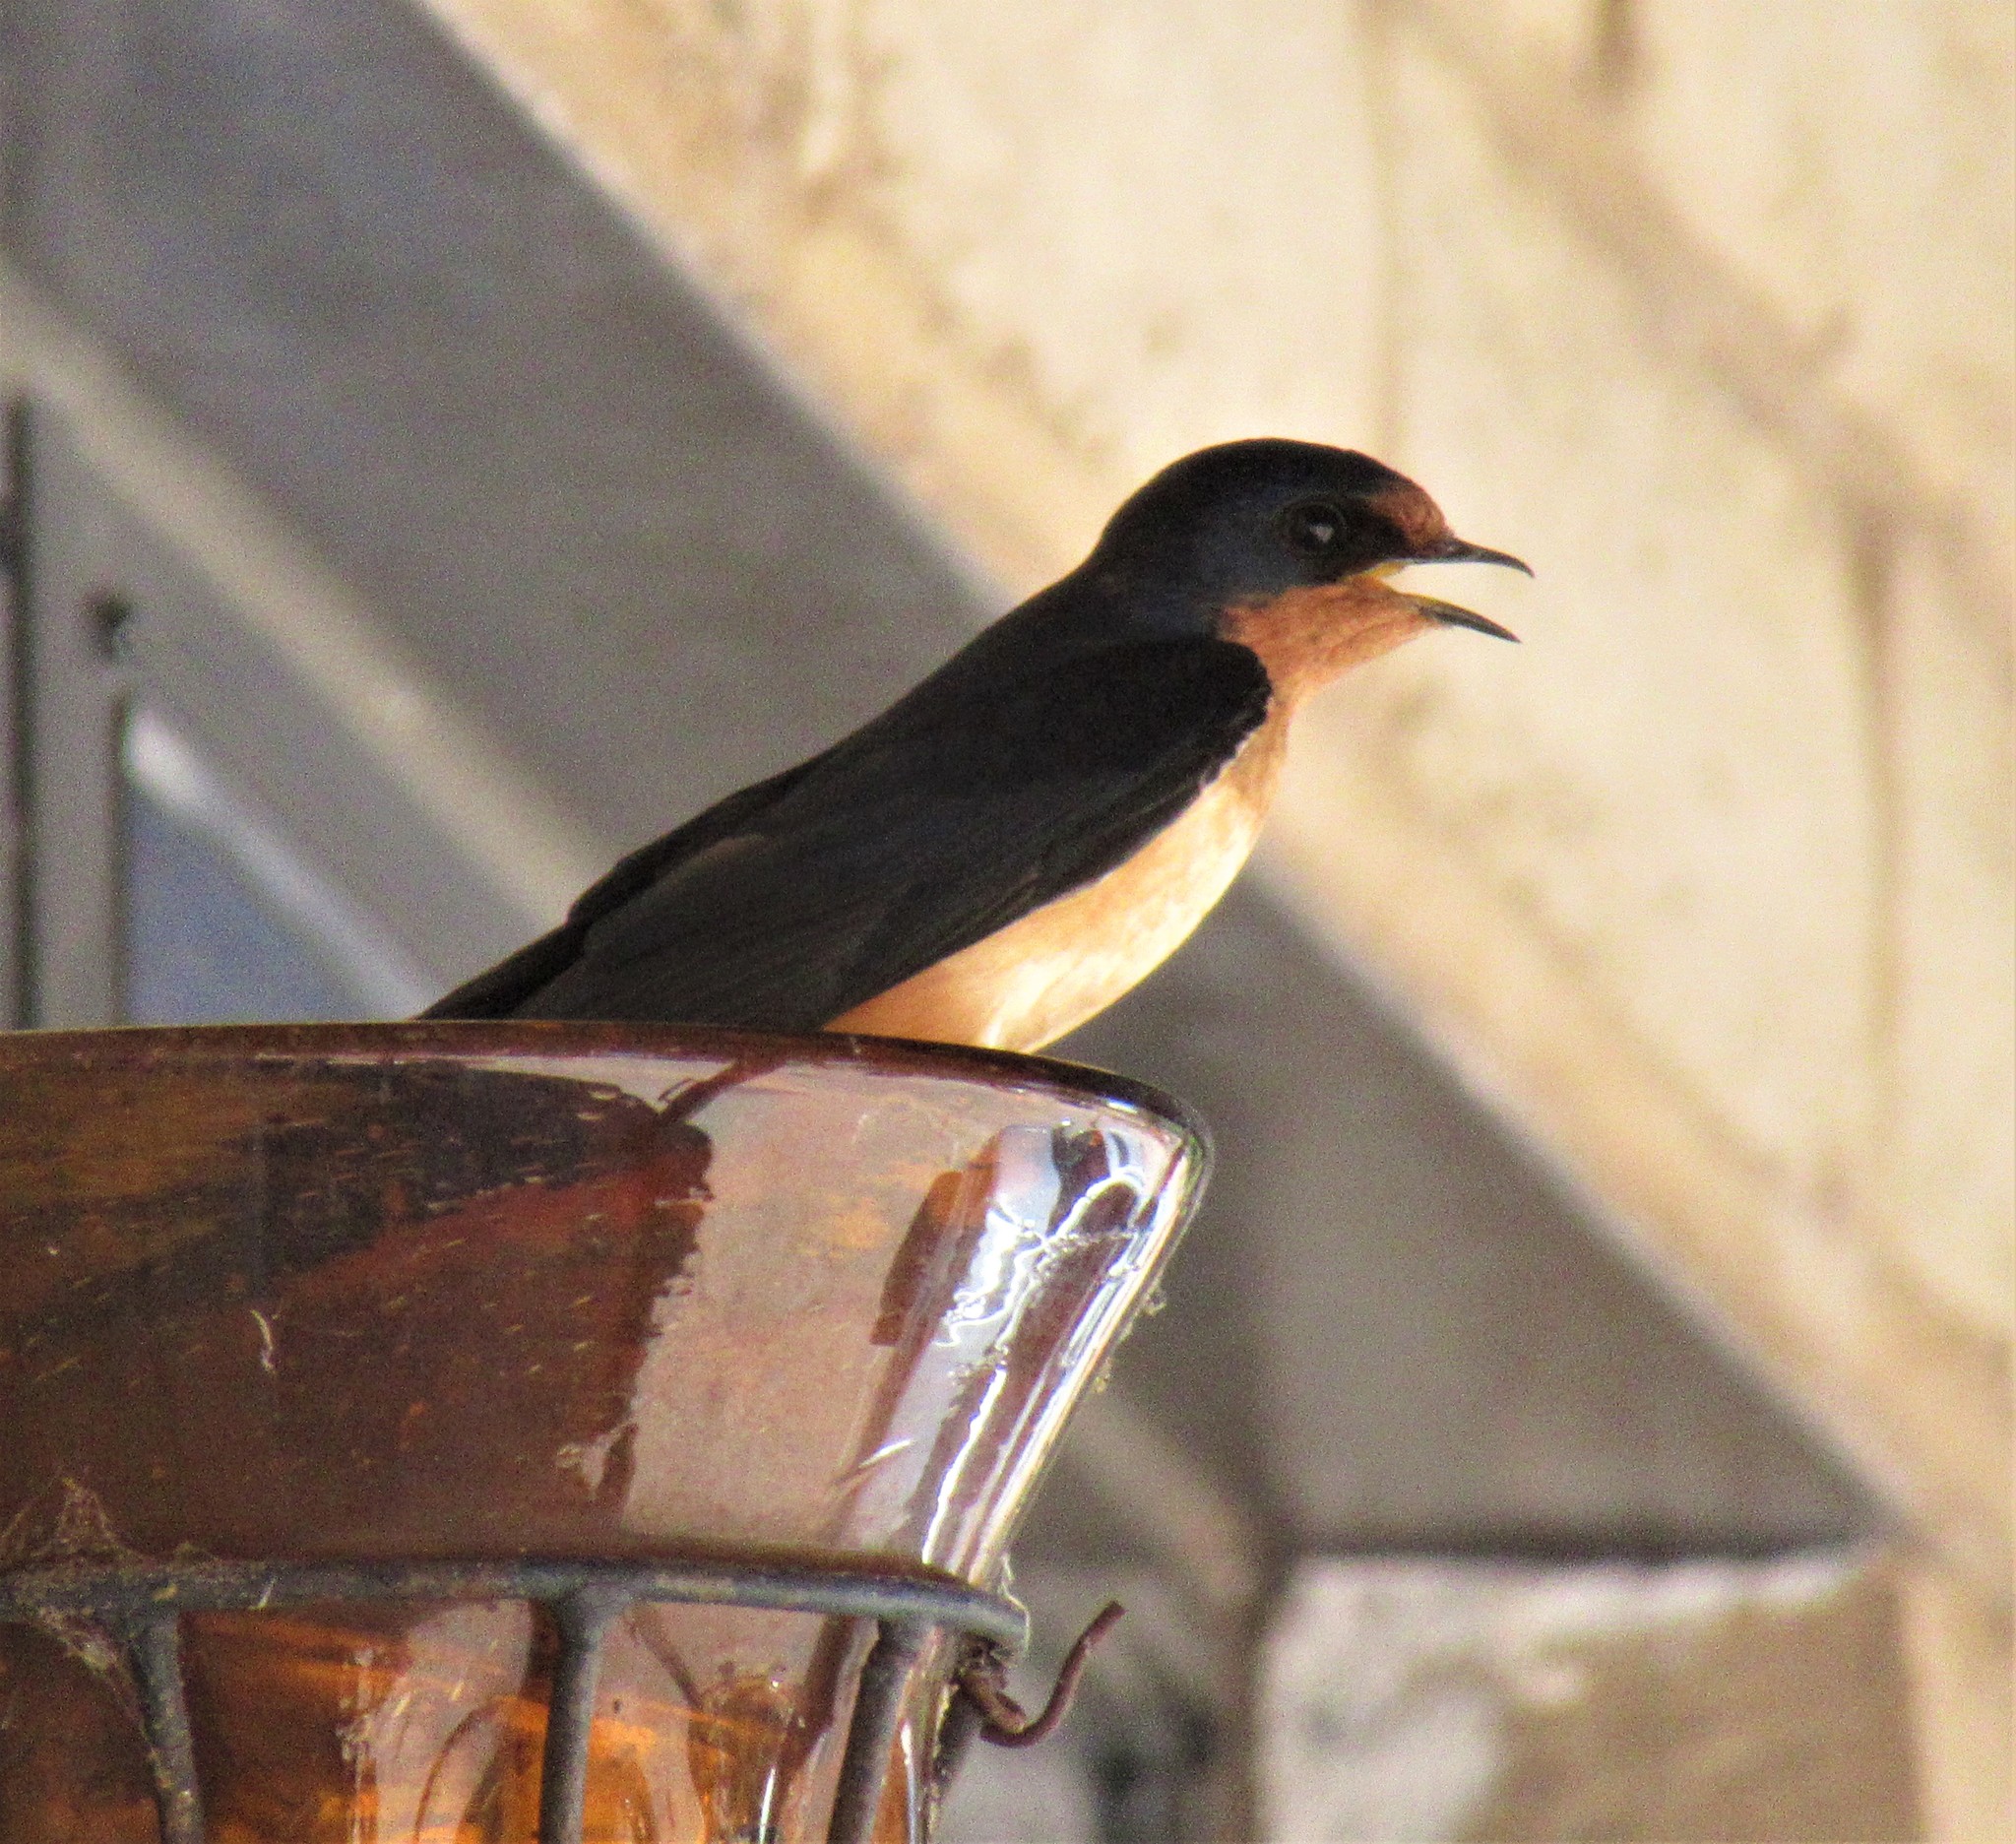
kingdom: Animalia
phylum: Chordata
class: Aves
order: Passeriformes
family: Hirundinidae
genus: Hirundo
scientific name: Hirundo rustica
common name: Barn swallow
